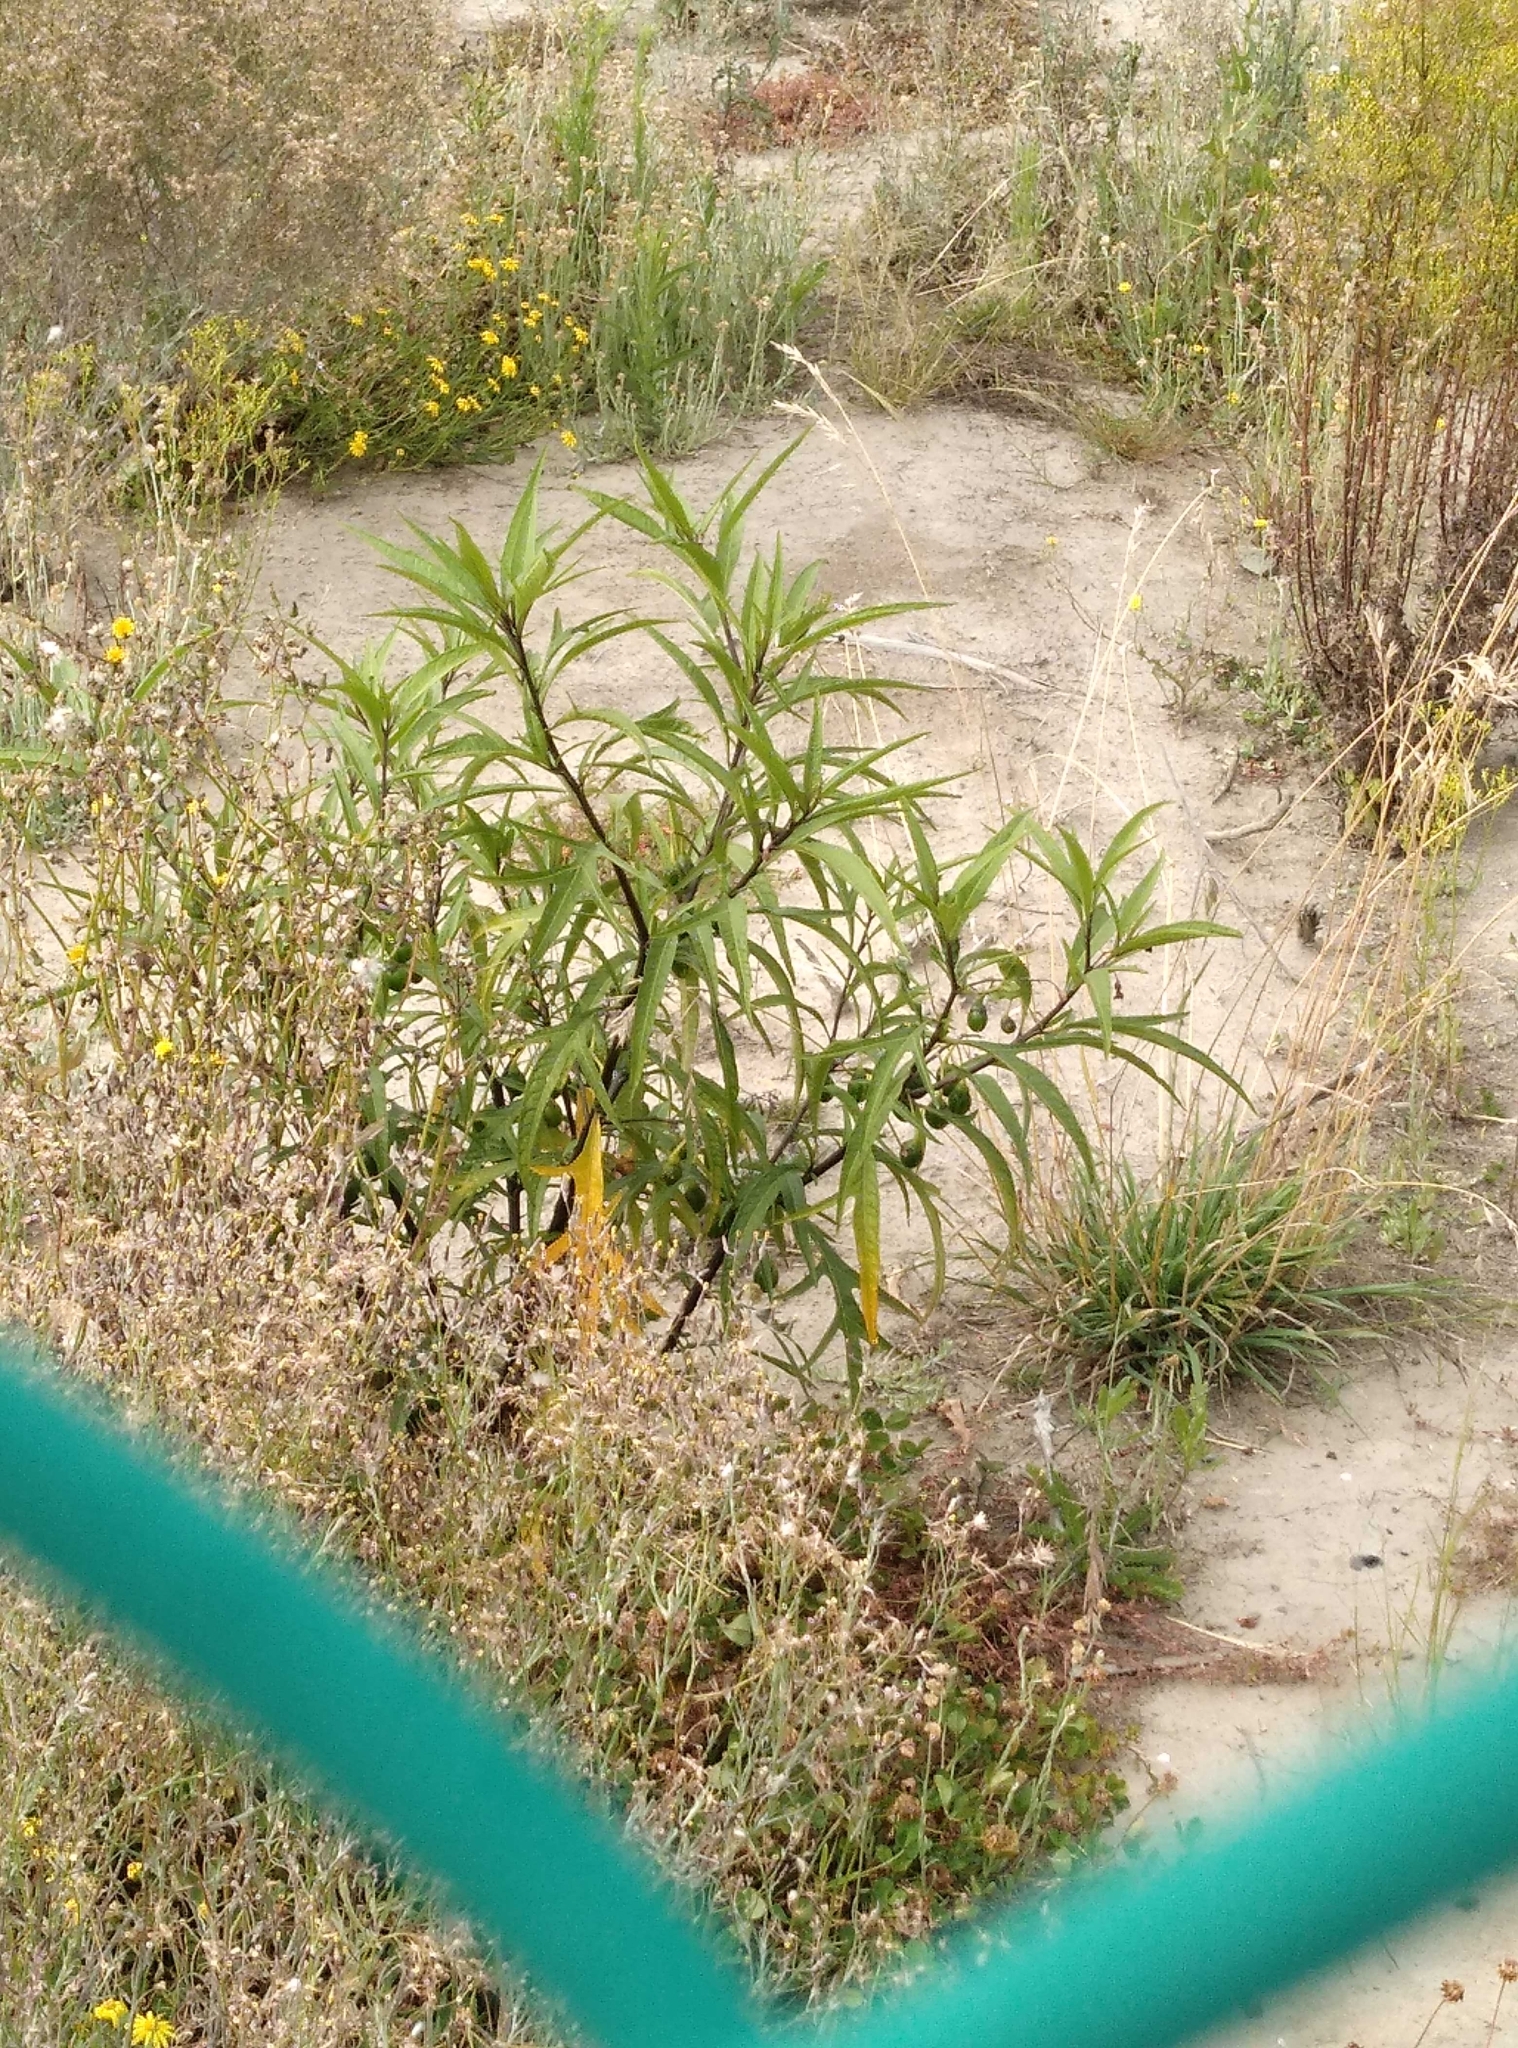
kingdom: Plantae
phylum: Tracheophyta
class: Magnoliopsida
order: Solanales
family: Solanaceae
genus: Solanum
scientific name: Solanum laciniatum
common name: Kangaroo-apple
